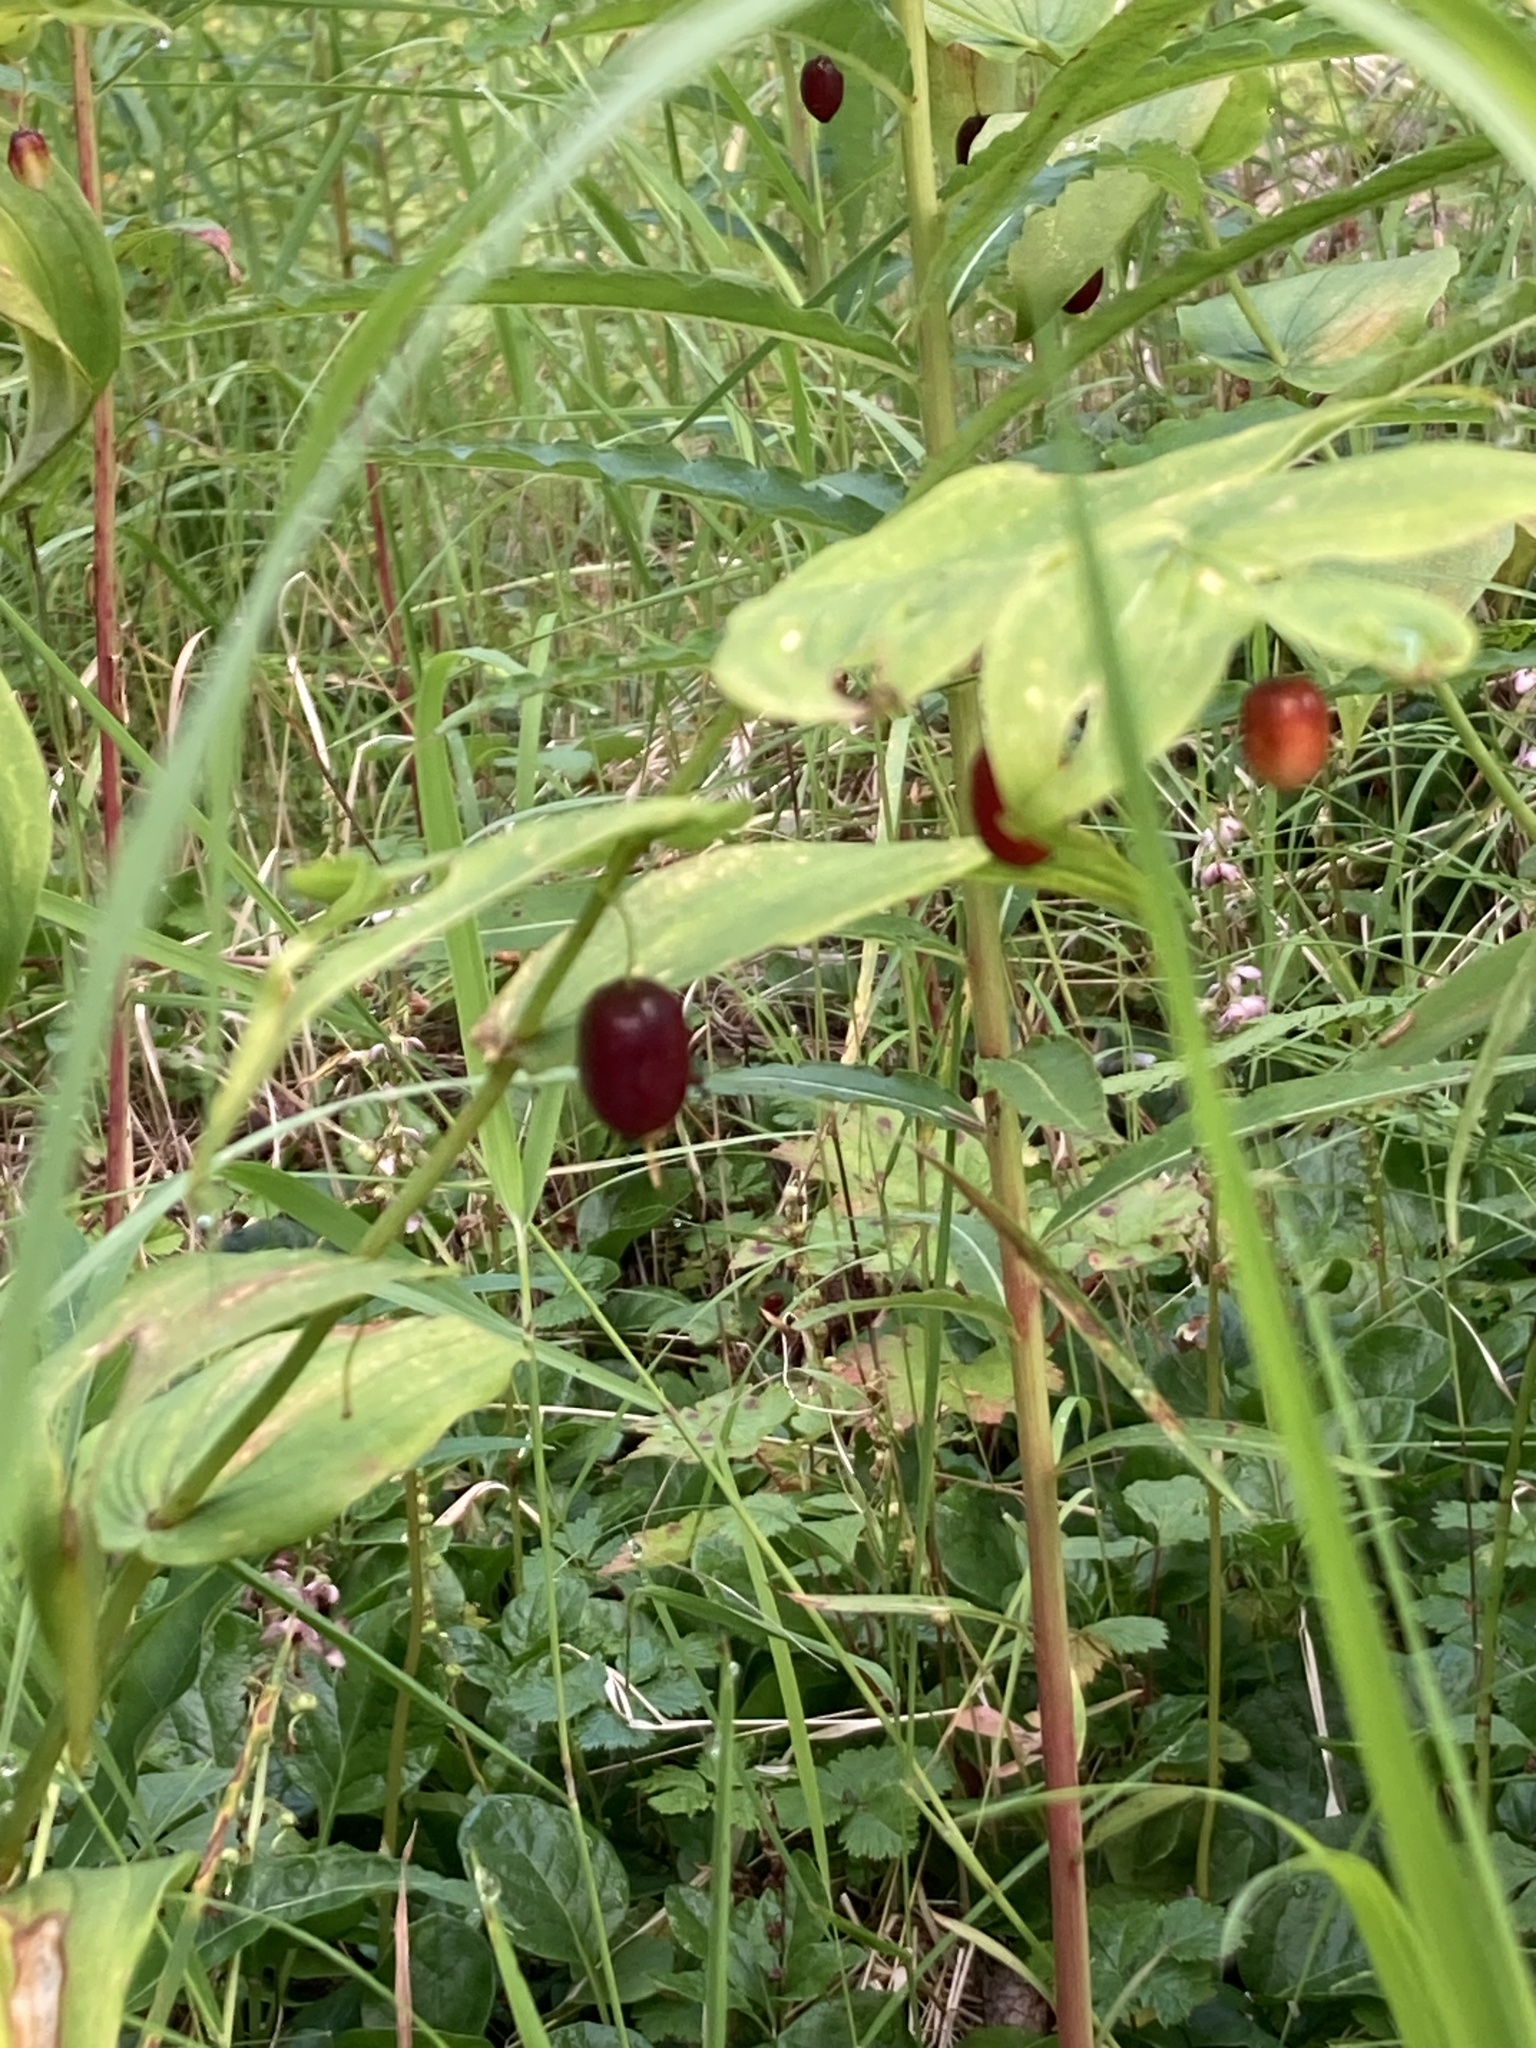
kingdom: Plantae
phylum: Tracheophyta
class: Liliopsida
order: Liliales
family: Liliaceae
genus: Streptopus
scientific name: Streptopus amplexifolius
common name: Clasp twisted stalk
